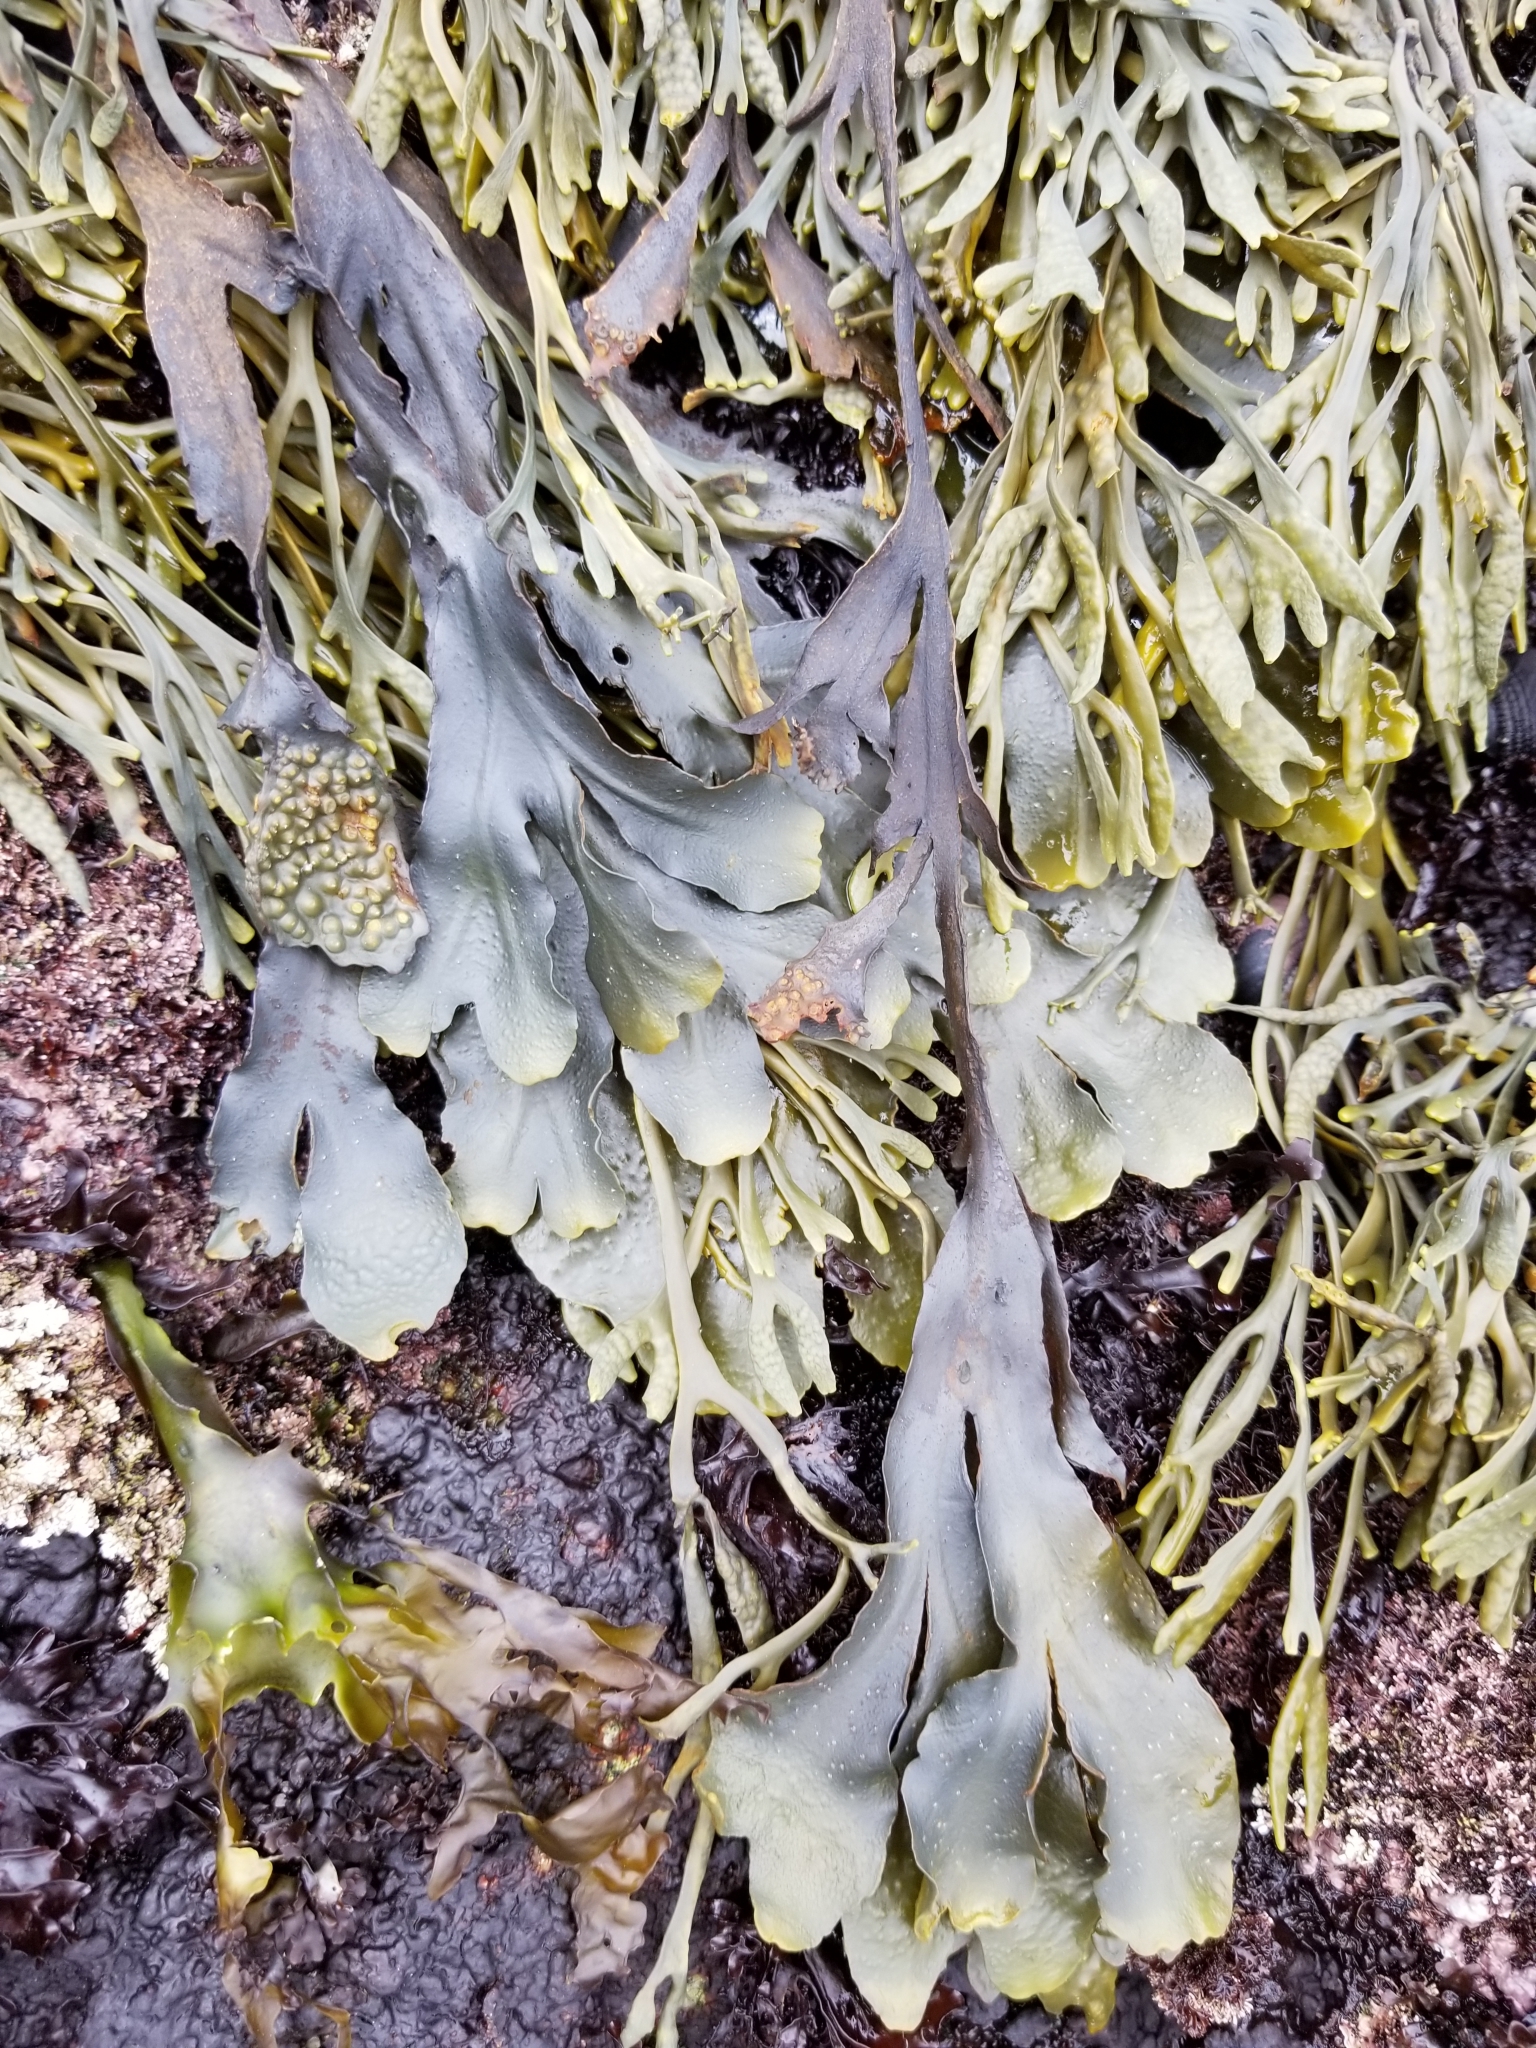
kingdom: Chromista
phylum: Ochrophyta
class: Phaeophyceae
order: Fucales
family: Fucaceae
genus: Fucus
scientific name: Fucus distichus
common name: Rockweed
